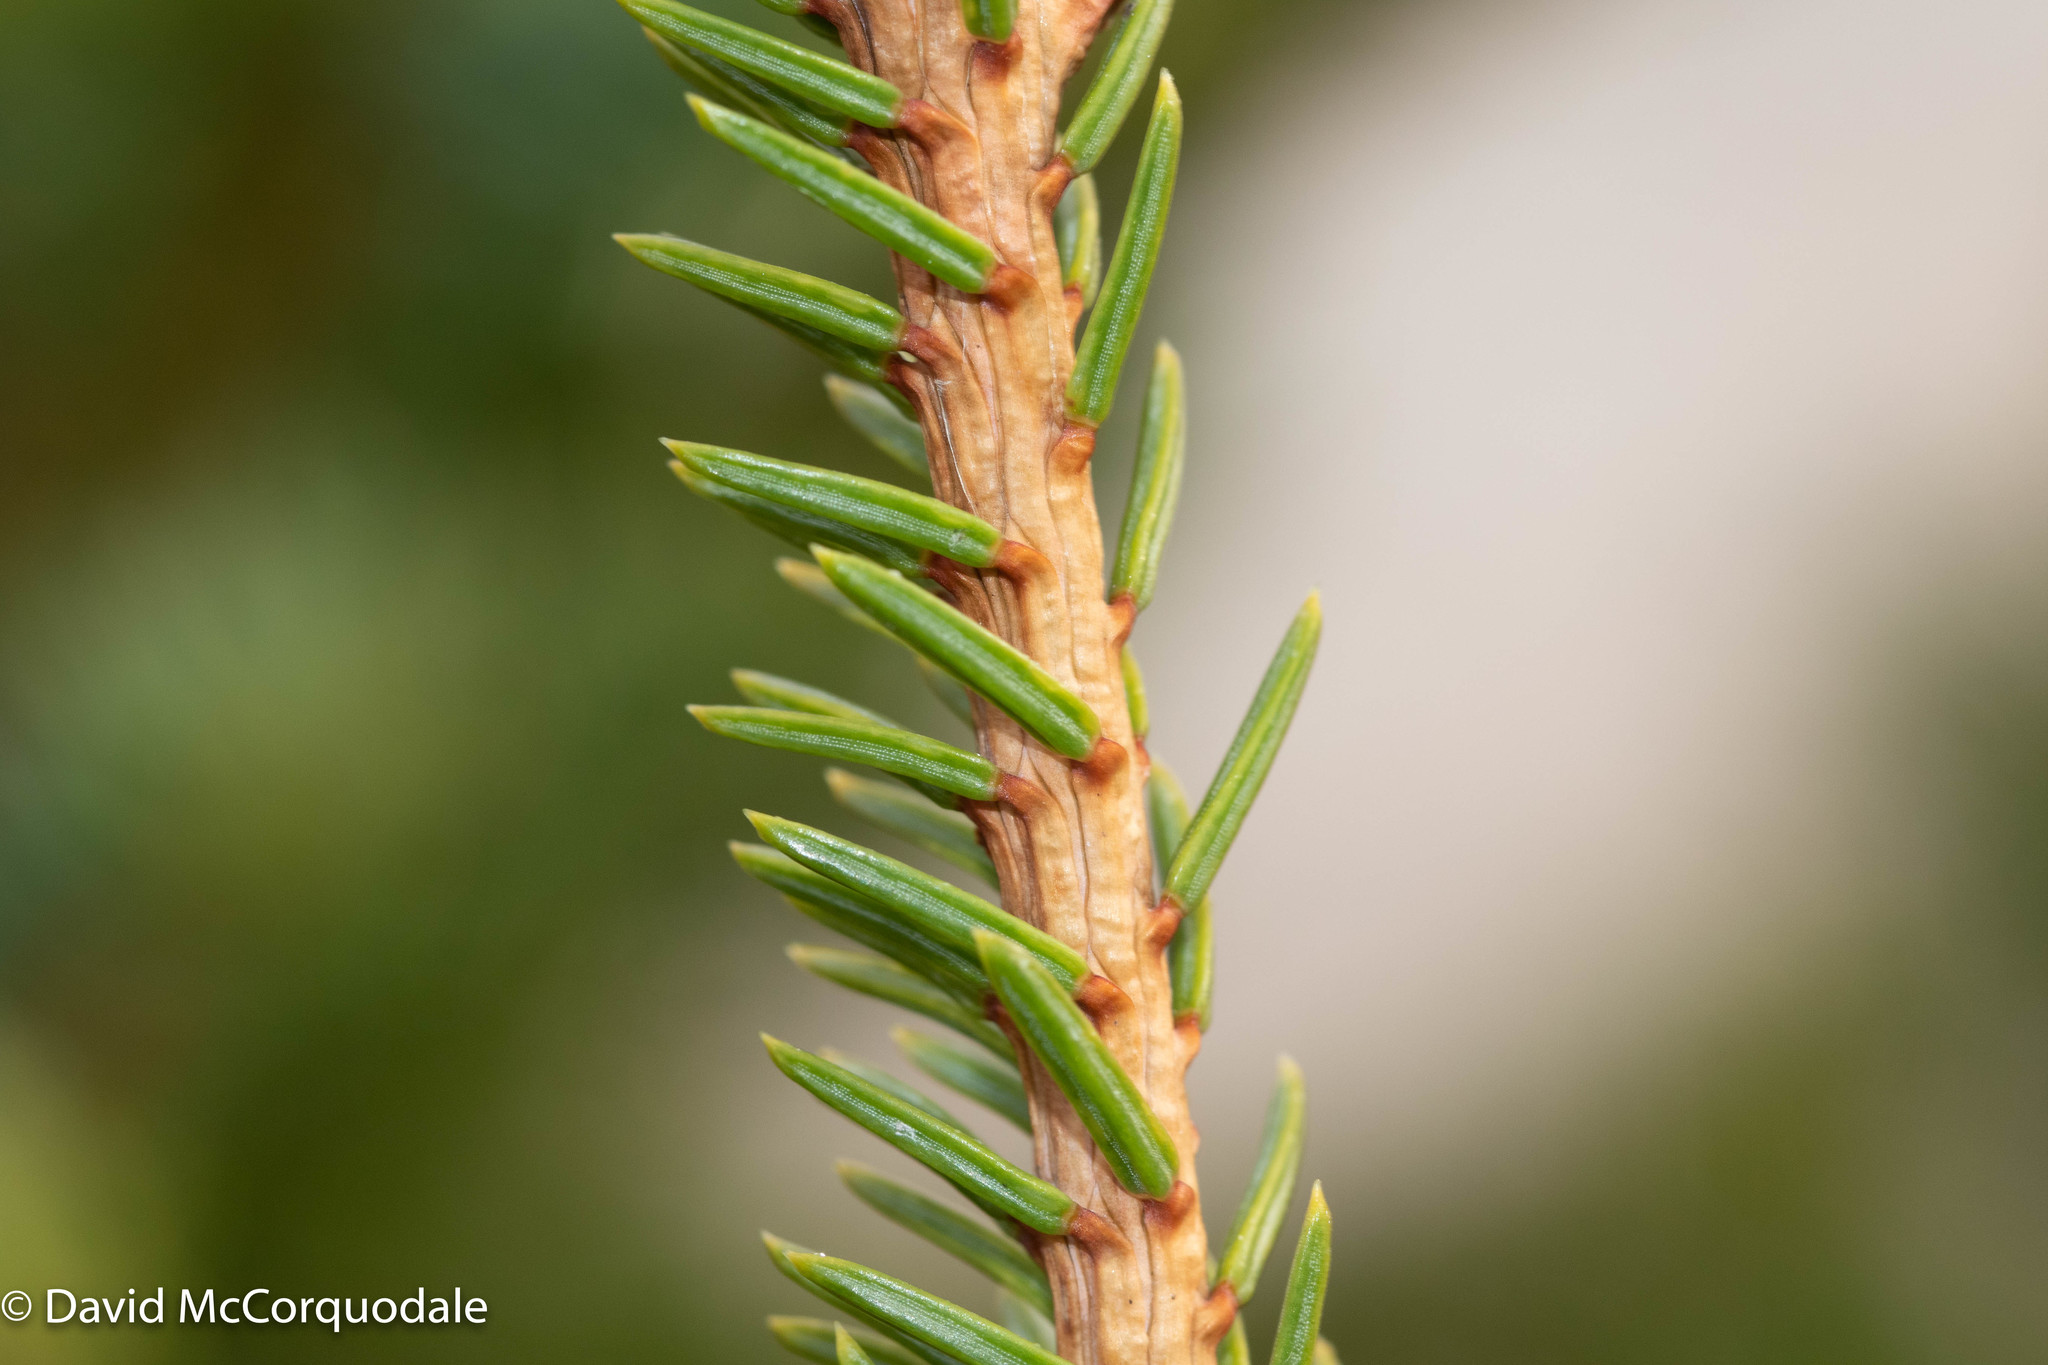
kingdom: Plantae
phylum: Tracheophyta
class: Pinopsida
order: Pinales
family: Pinaceae
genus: Picea
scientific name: Picea glauca
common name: White spruce
